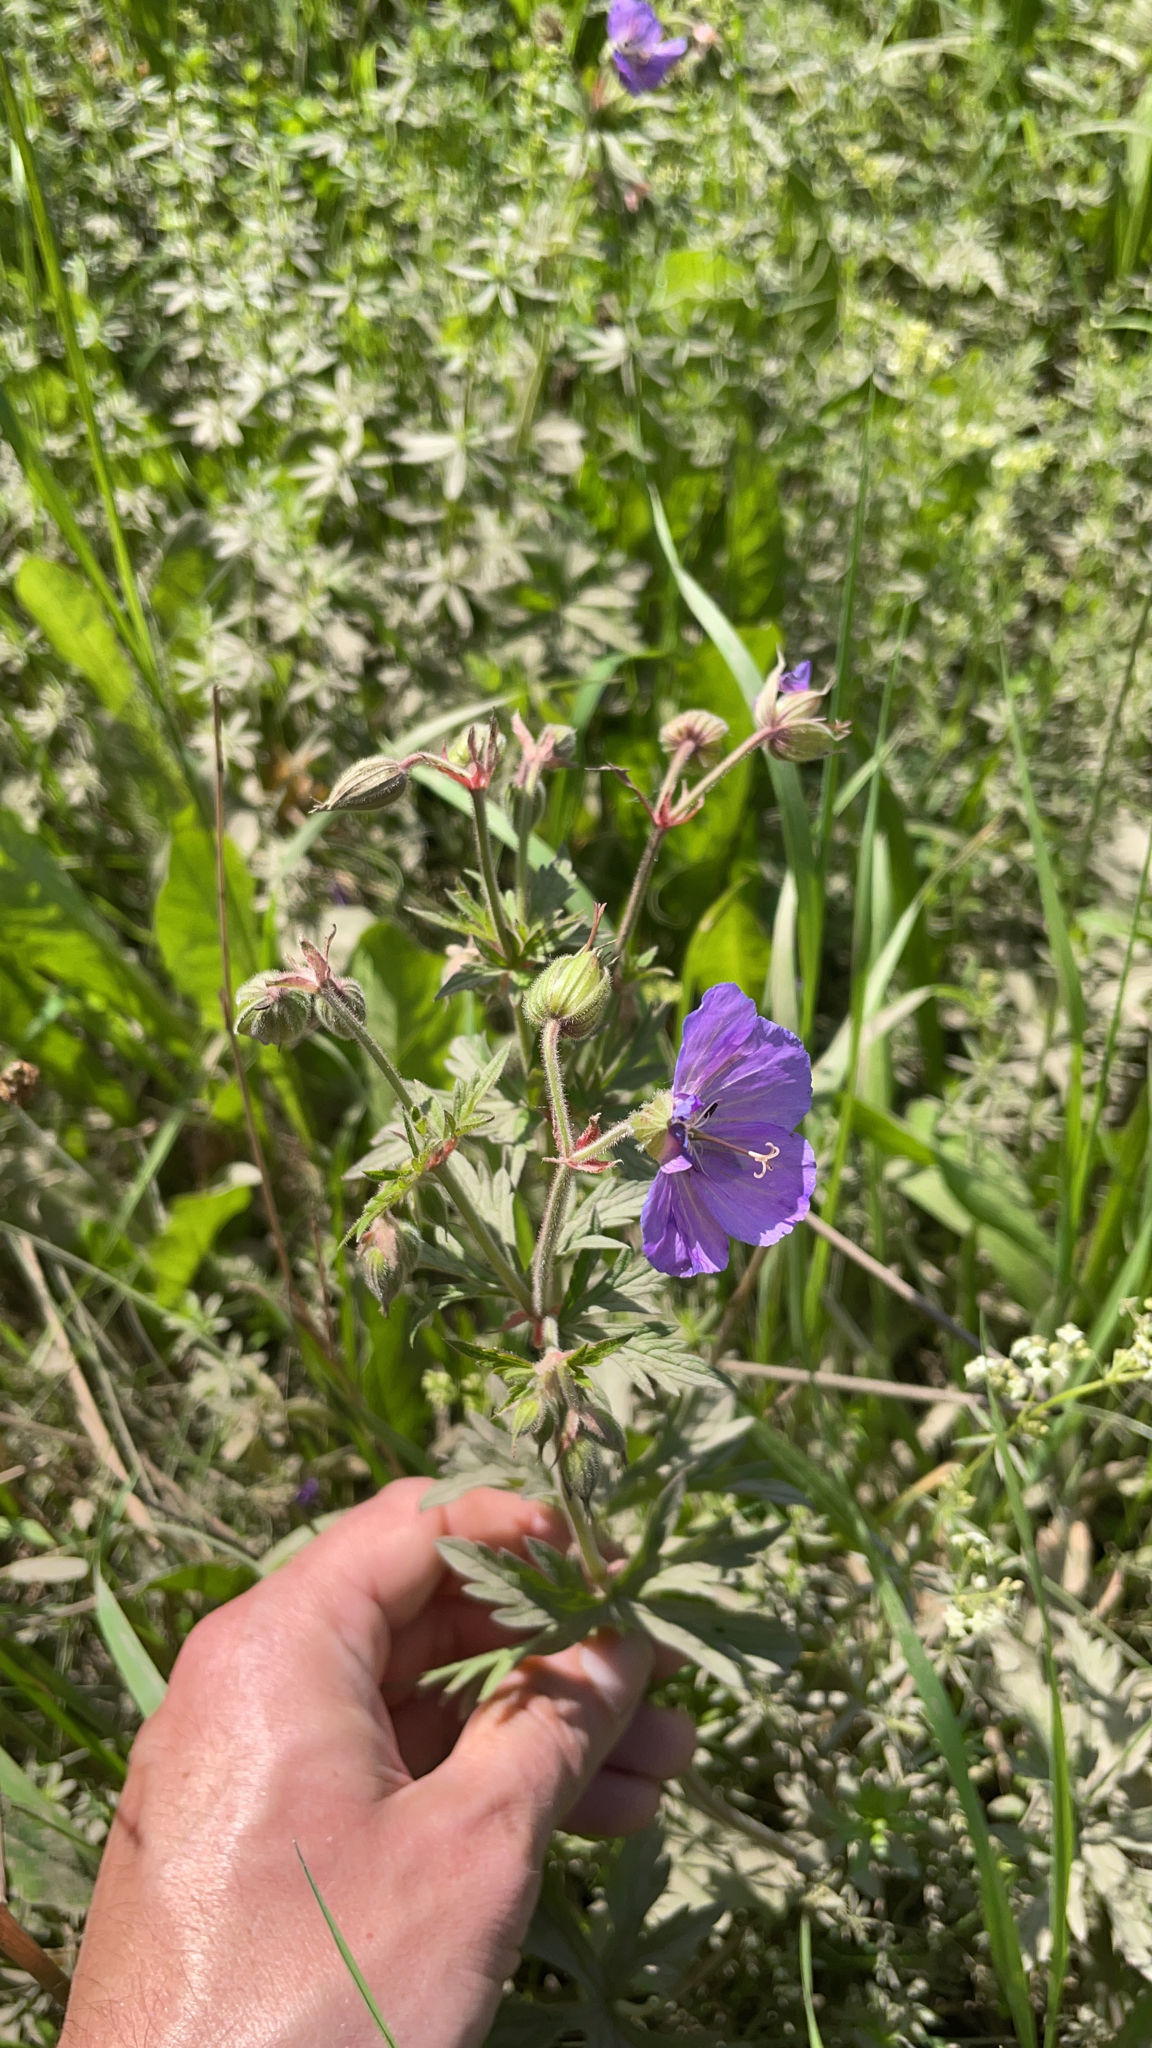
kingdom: Plantae
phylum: Tracheophyta
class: Magnoliopsida
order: Geraniales
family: Geraniaceae
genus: Geranium
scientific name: Geranium pratense
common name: Meadow crane's-bill
